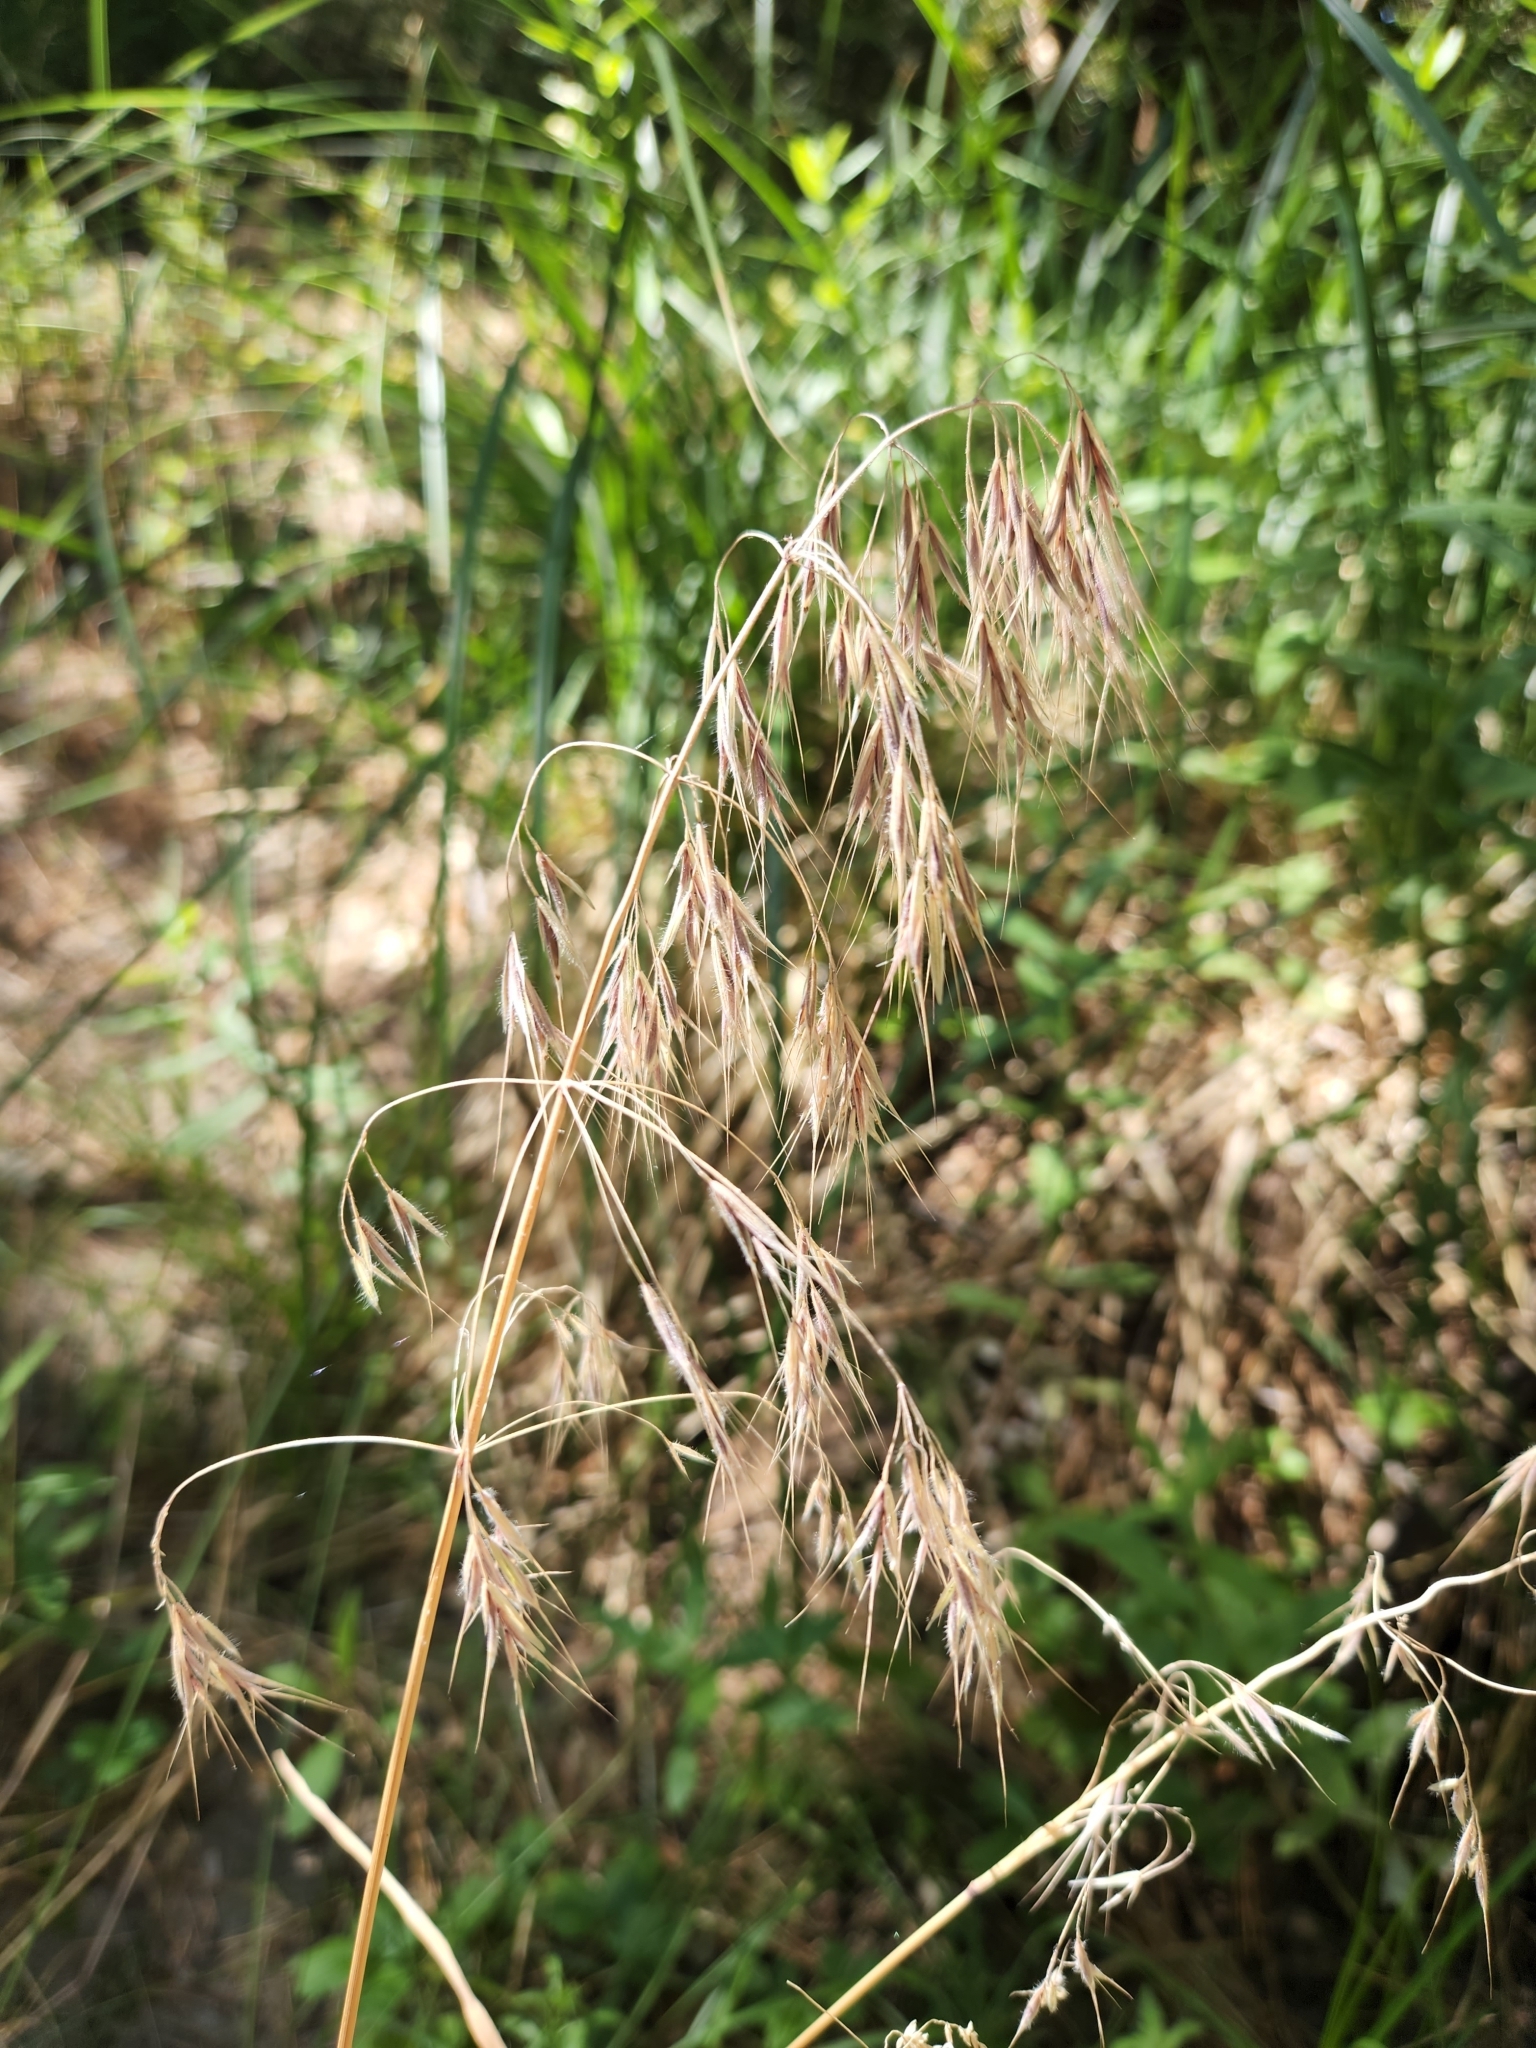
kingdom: Plantae
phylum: Tracheophyta
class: Liliopsida
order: Poales
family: Poaceae
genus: Bromus
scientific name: Bromus tectorum
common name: Cheatgrass
